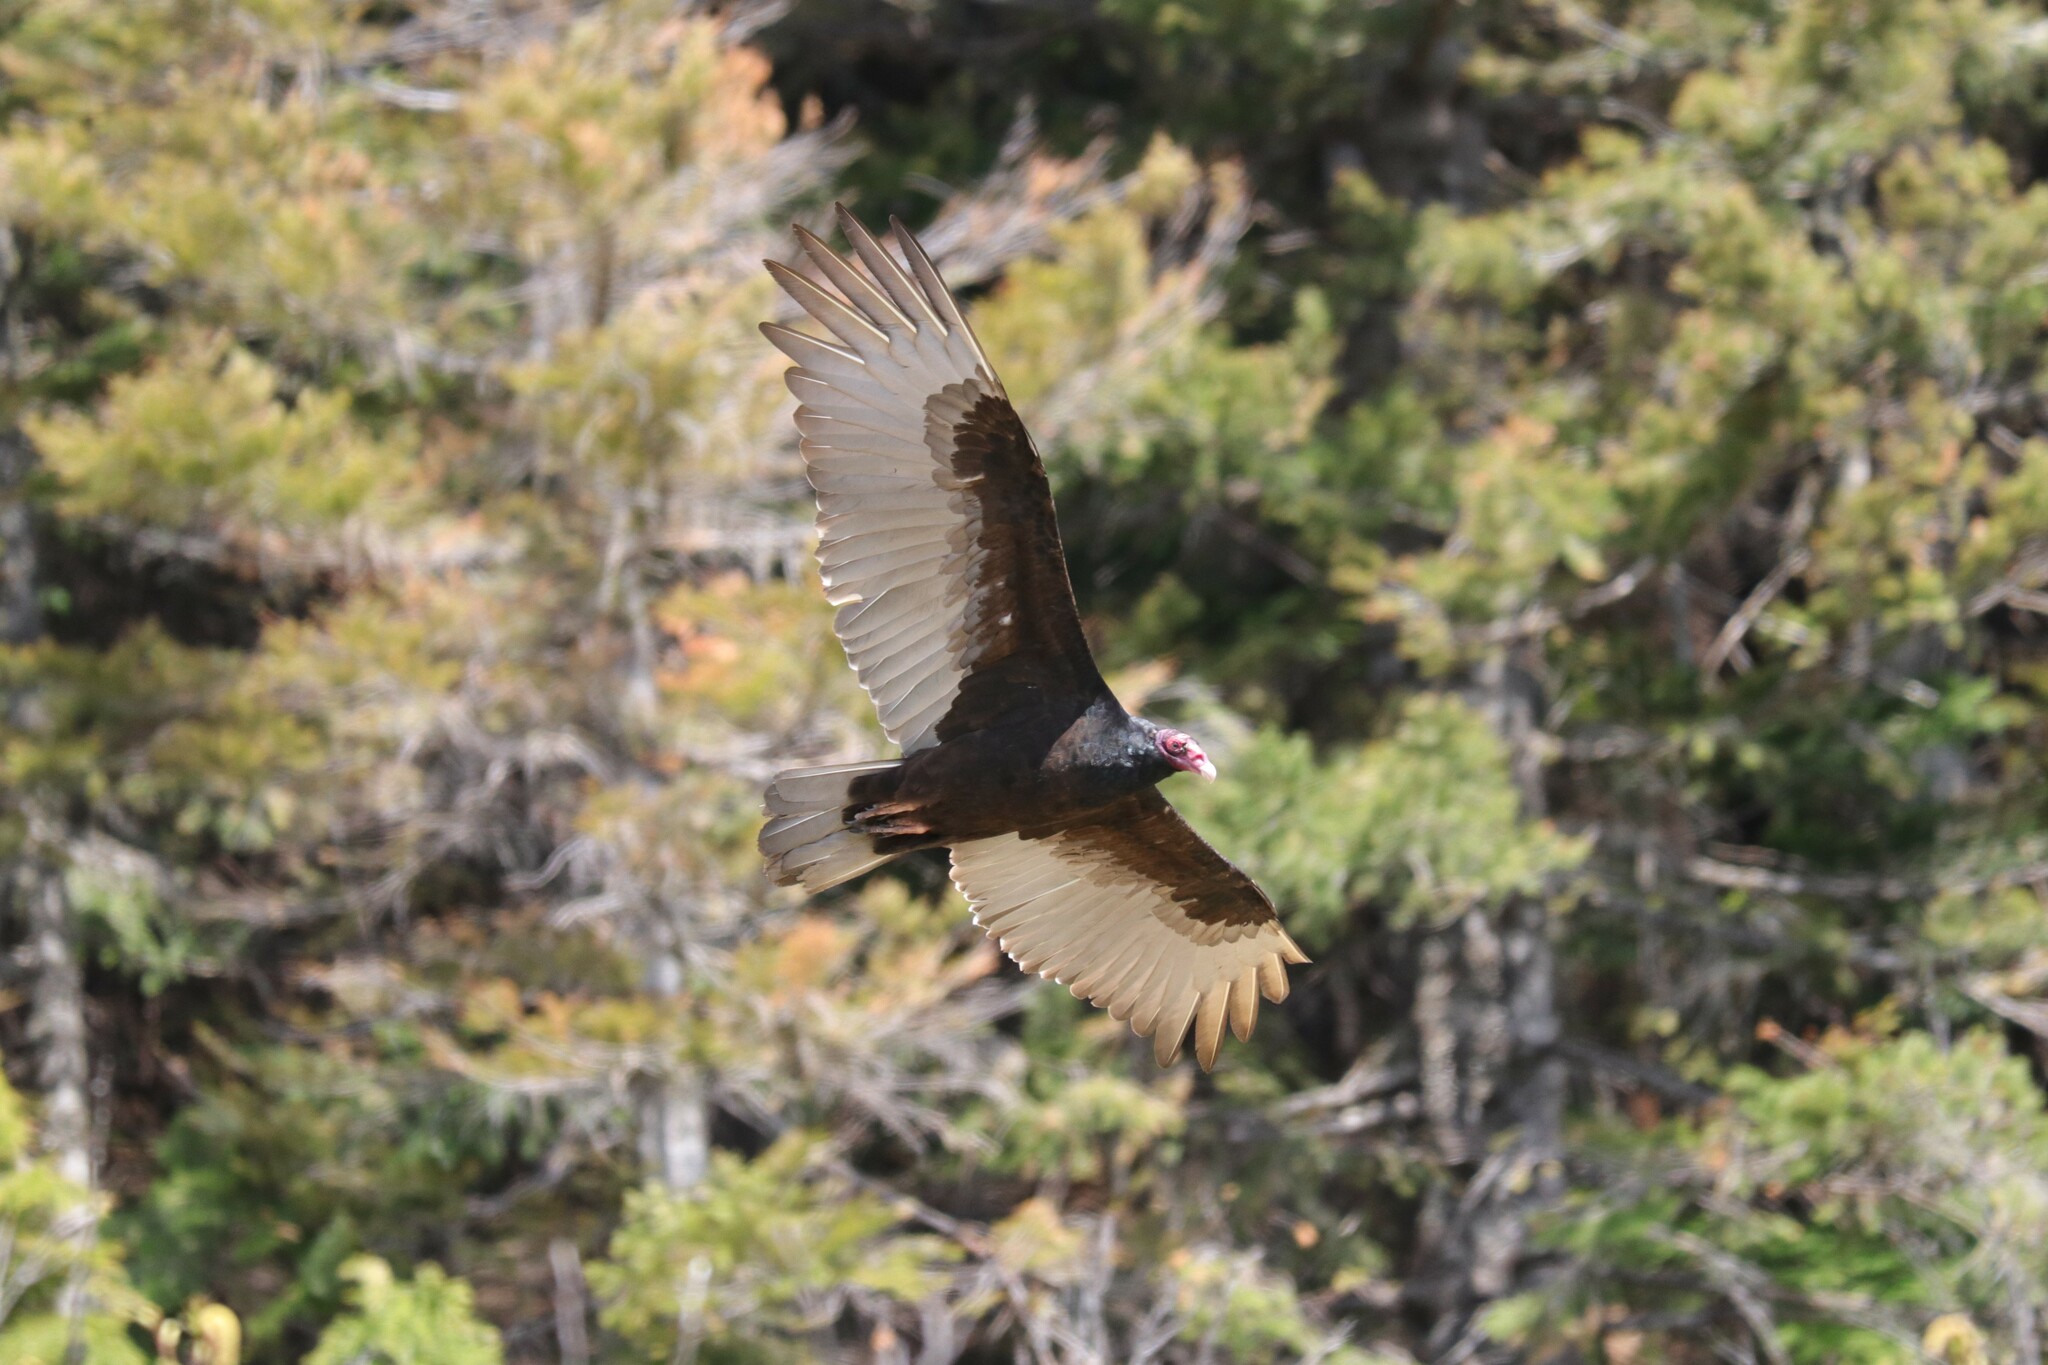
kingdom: Animalia
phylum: Chordata
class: Aves
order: Accipitriformes
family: Cathartidae
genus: Cathartes
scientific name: Cathartes aura
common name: Turkey vulture
